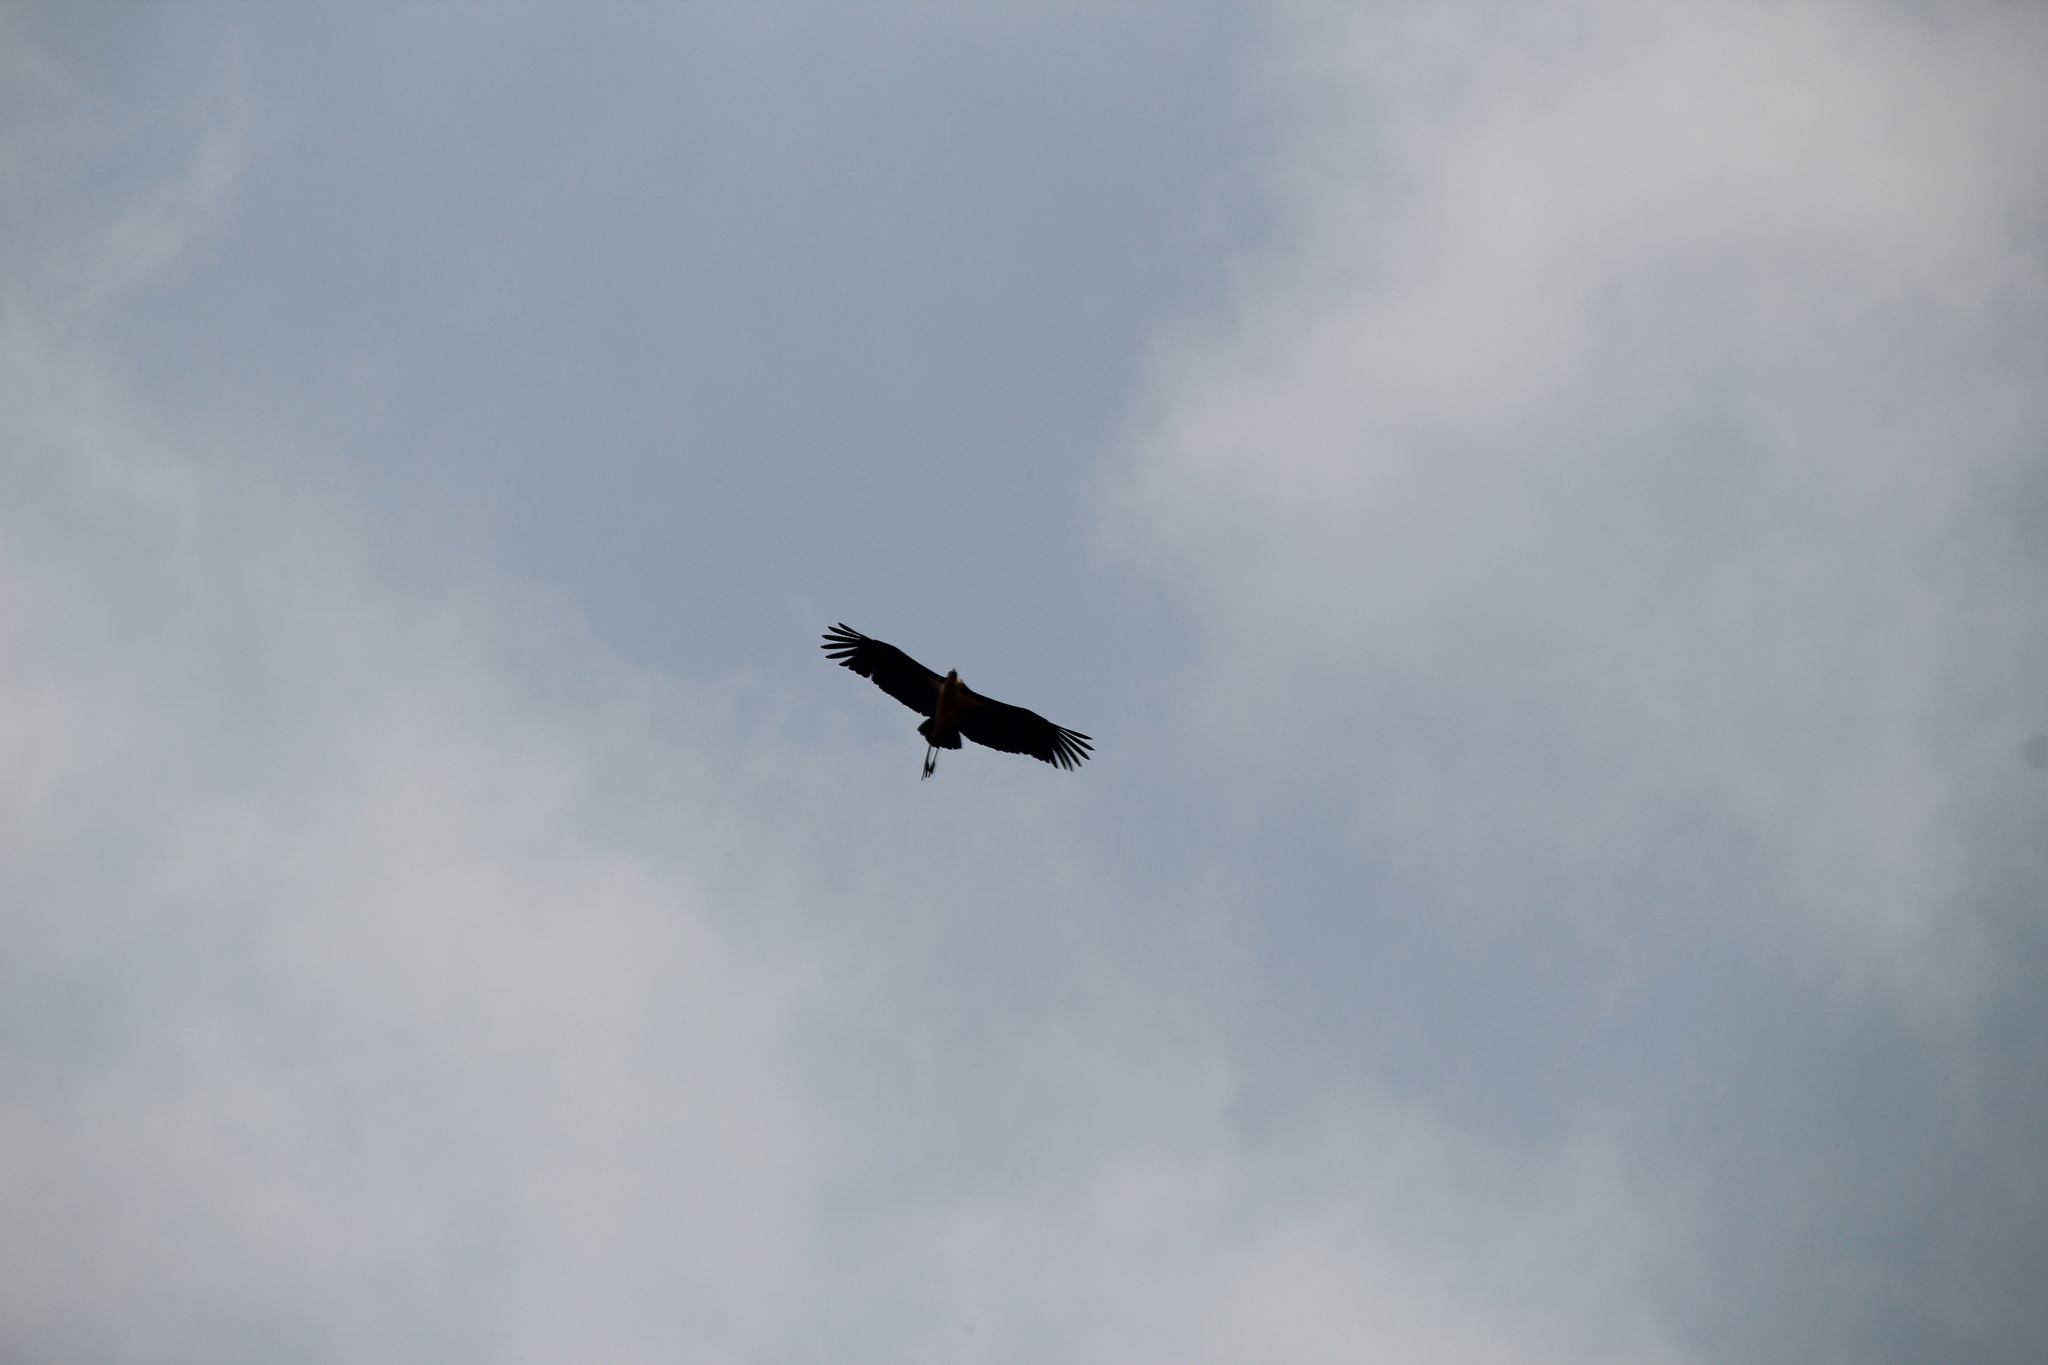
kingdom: Animalia
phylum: Chordata
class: Aves
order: Ciconiiformes
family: Ciconiidae
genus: Leptoptilos
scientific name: Leptoptilos crumenifer
